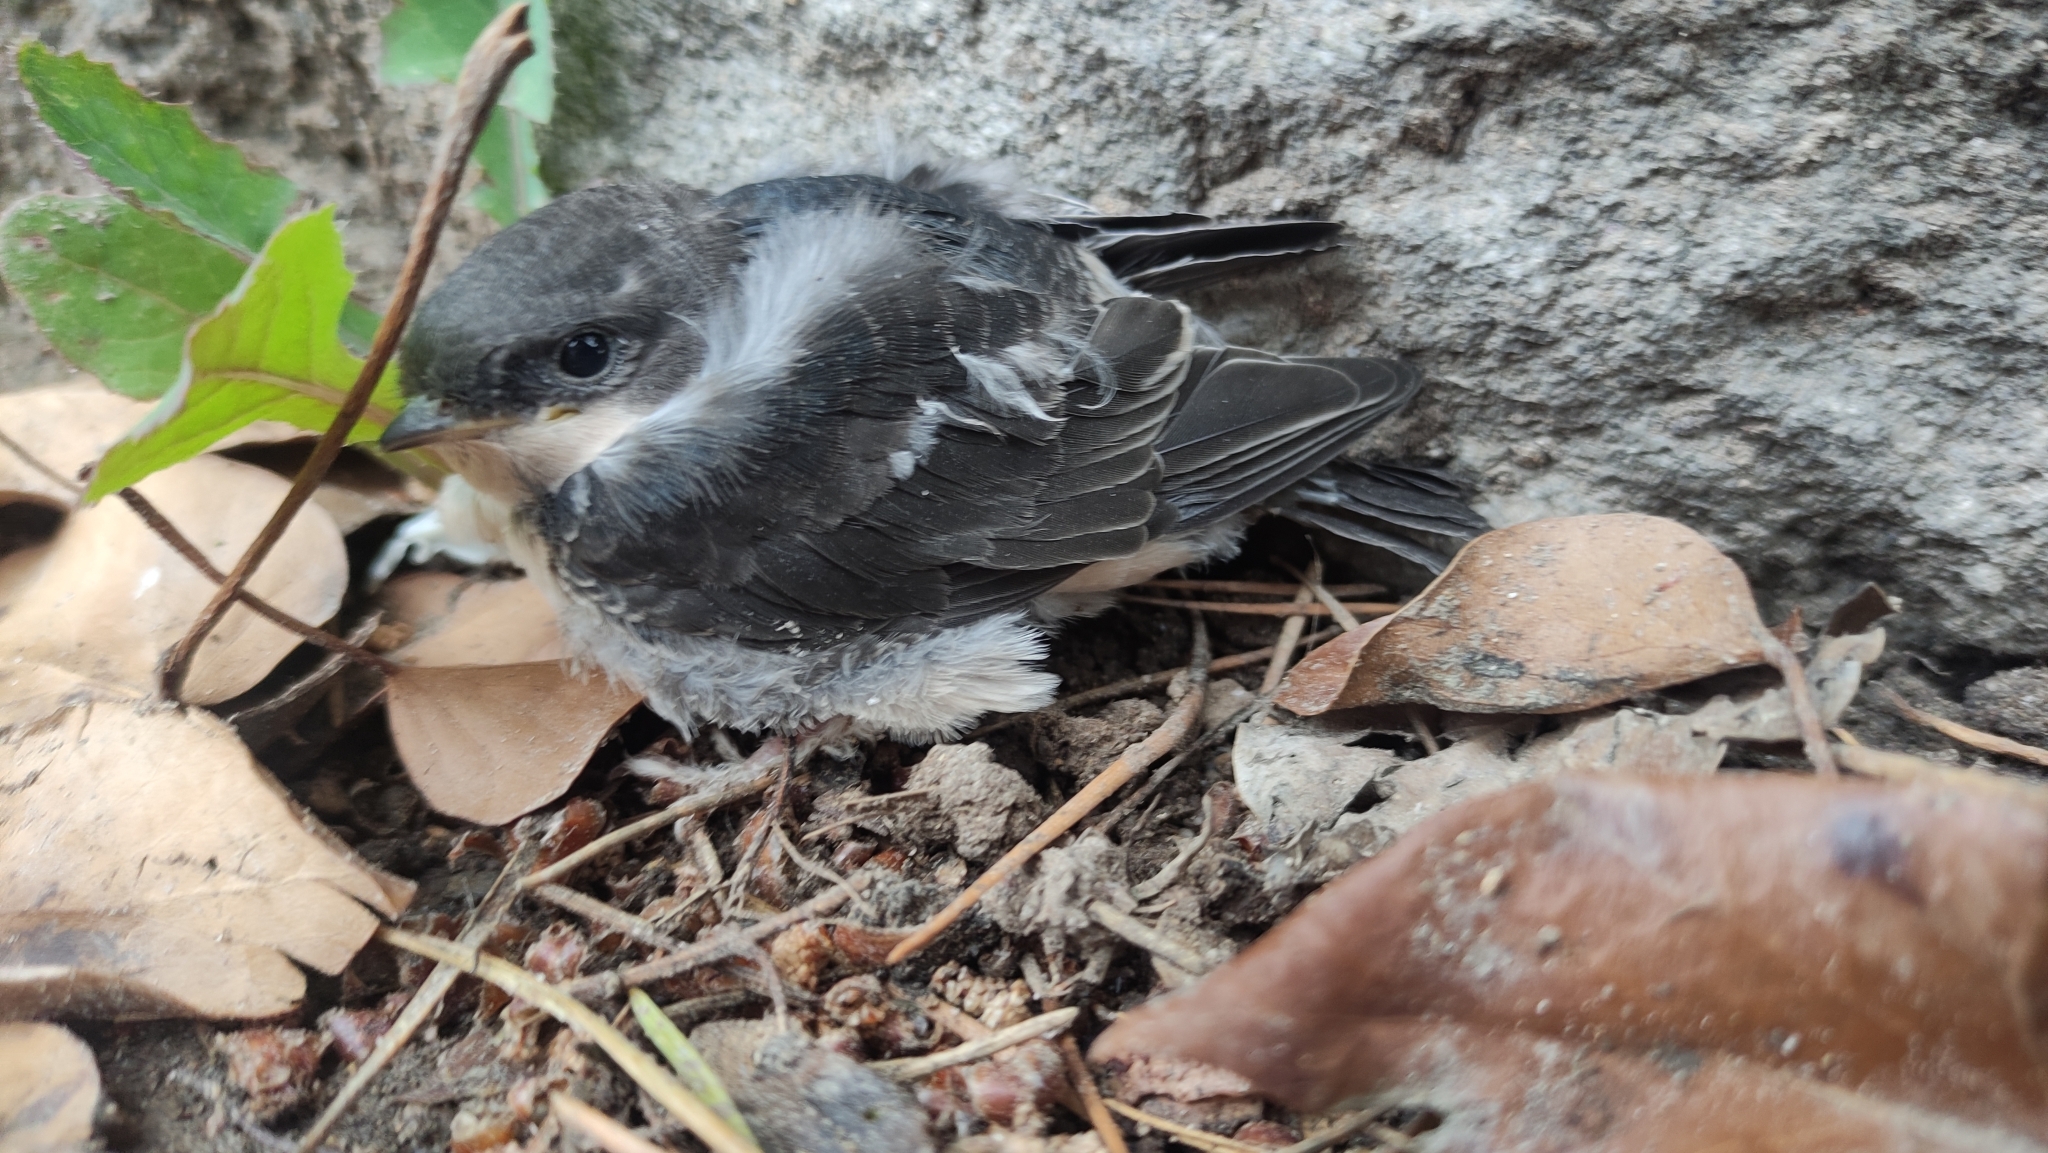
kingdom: Animalia
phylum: Chordata
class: Aves
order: Passeriformes
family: Hirundinidae
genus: Delichon
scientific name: Delichon urbicum
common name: Common house martin
